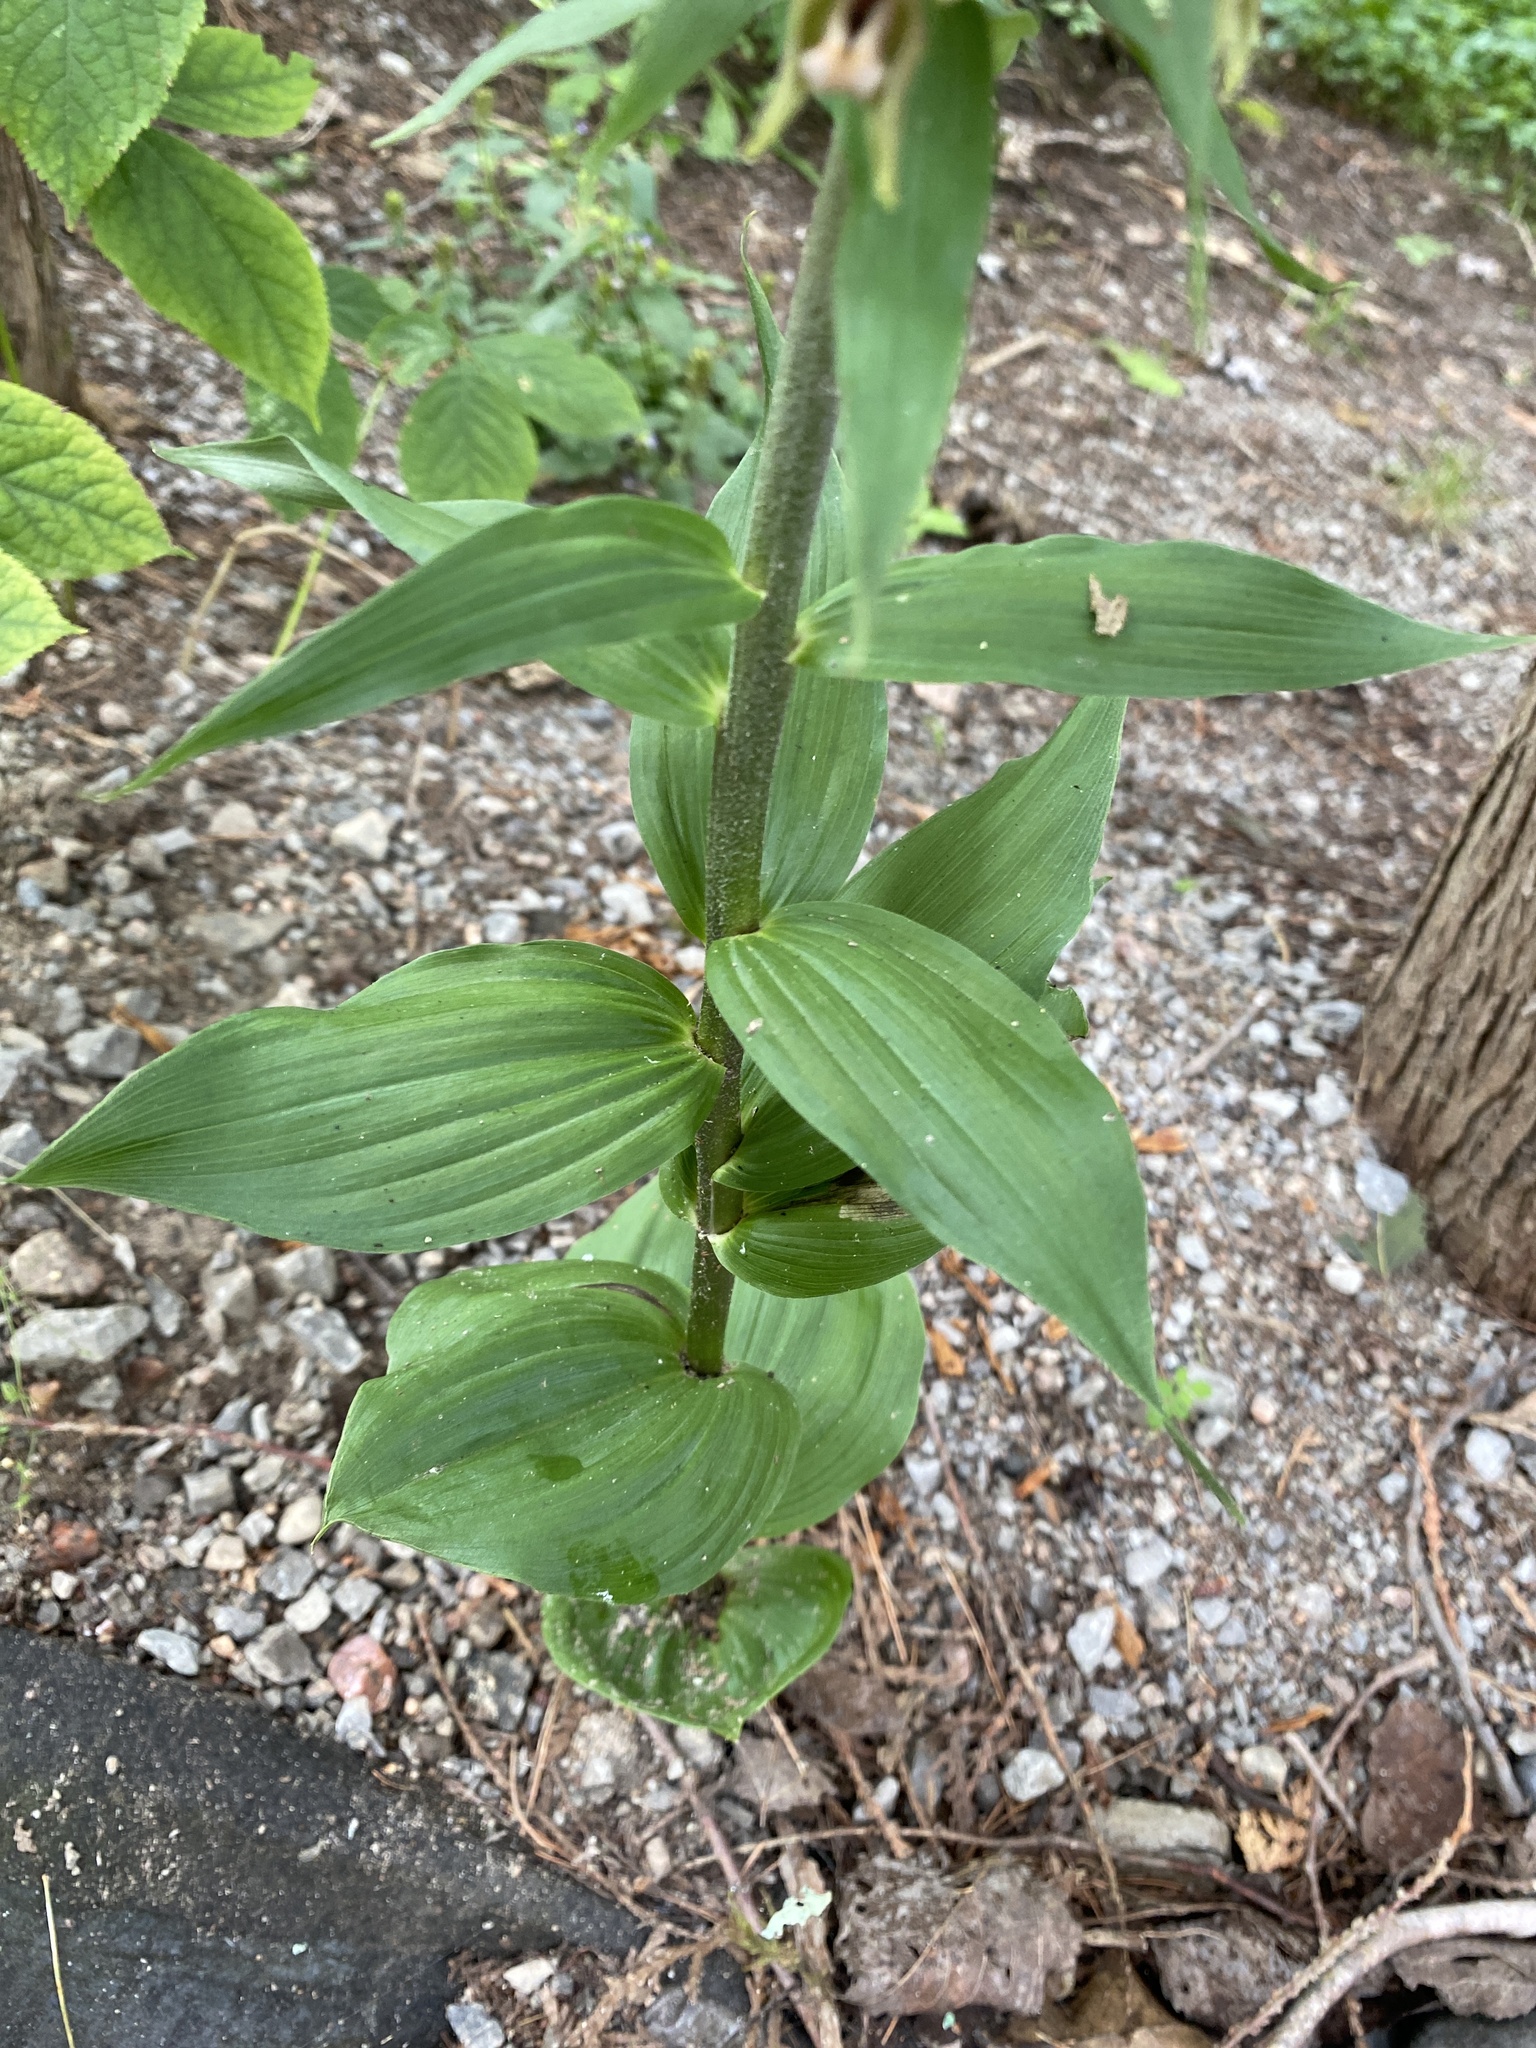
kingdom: Plantae
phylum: Tracheophyta
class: Liliopsida
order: Asparagales
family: Orchidaceae
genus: Epipactis
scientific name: Epipactis helleborine
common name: Broad-leaved helleborine
